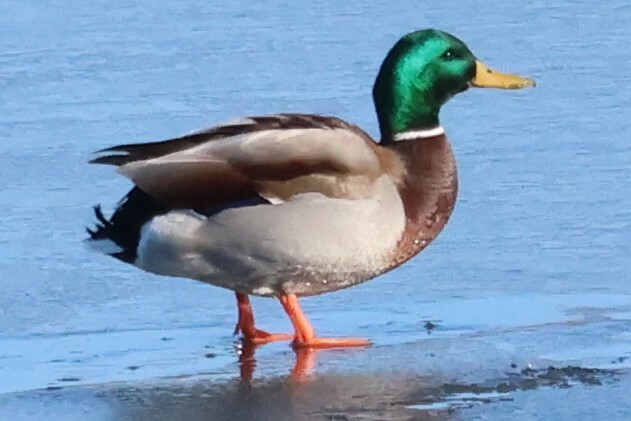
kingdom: Animalia
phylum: Chordata
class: Aves
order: Anseriformes
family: Anatidae
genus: Anas
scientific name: Anas platyrhynchos
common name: Mallard
